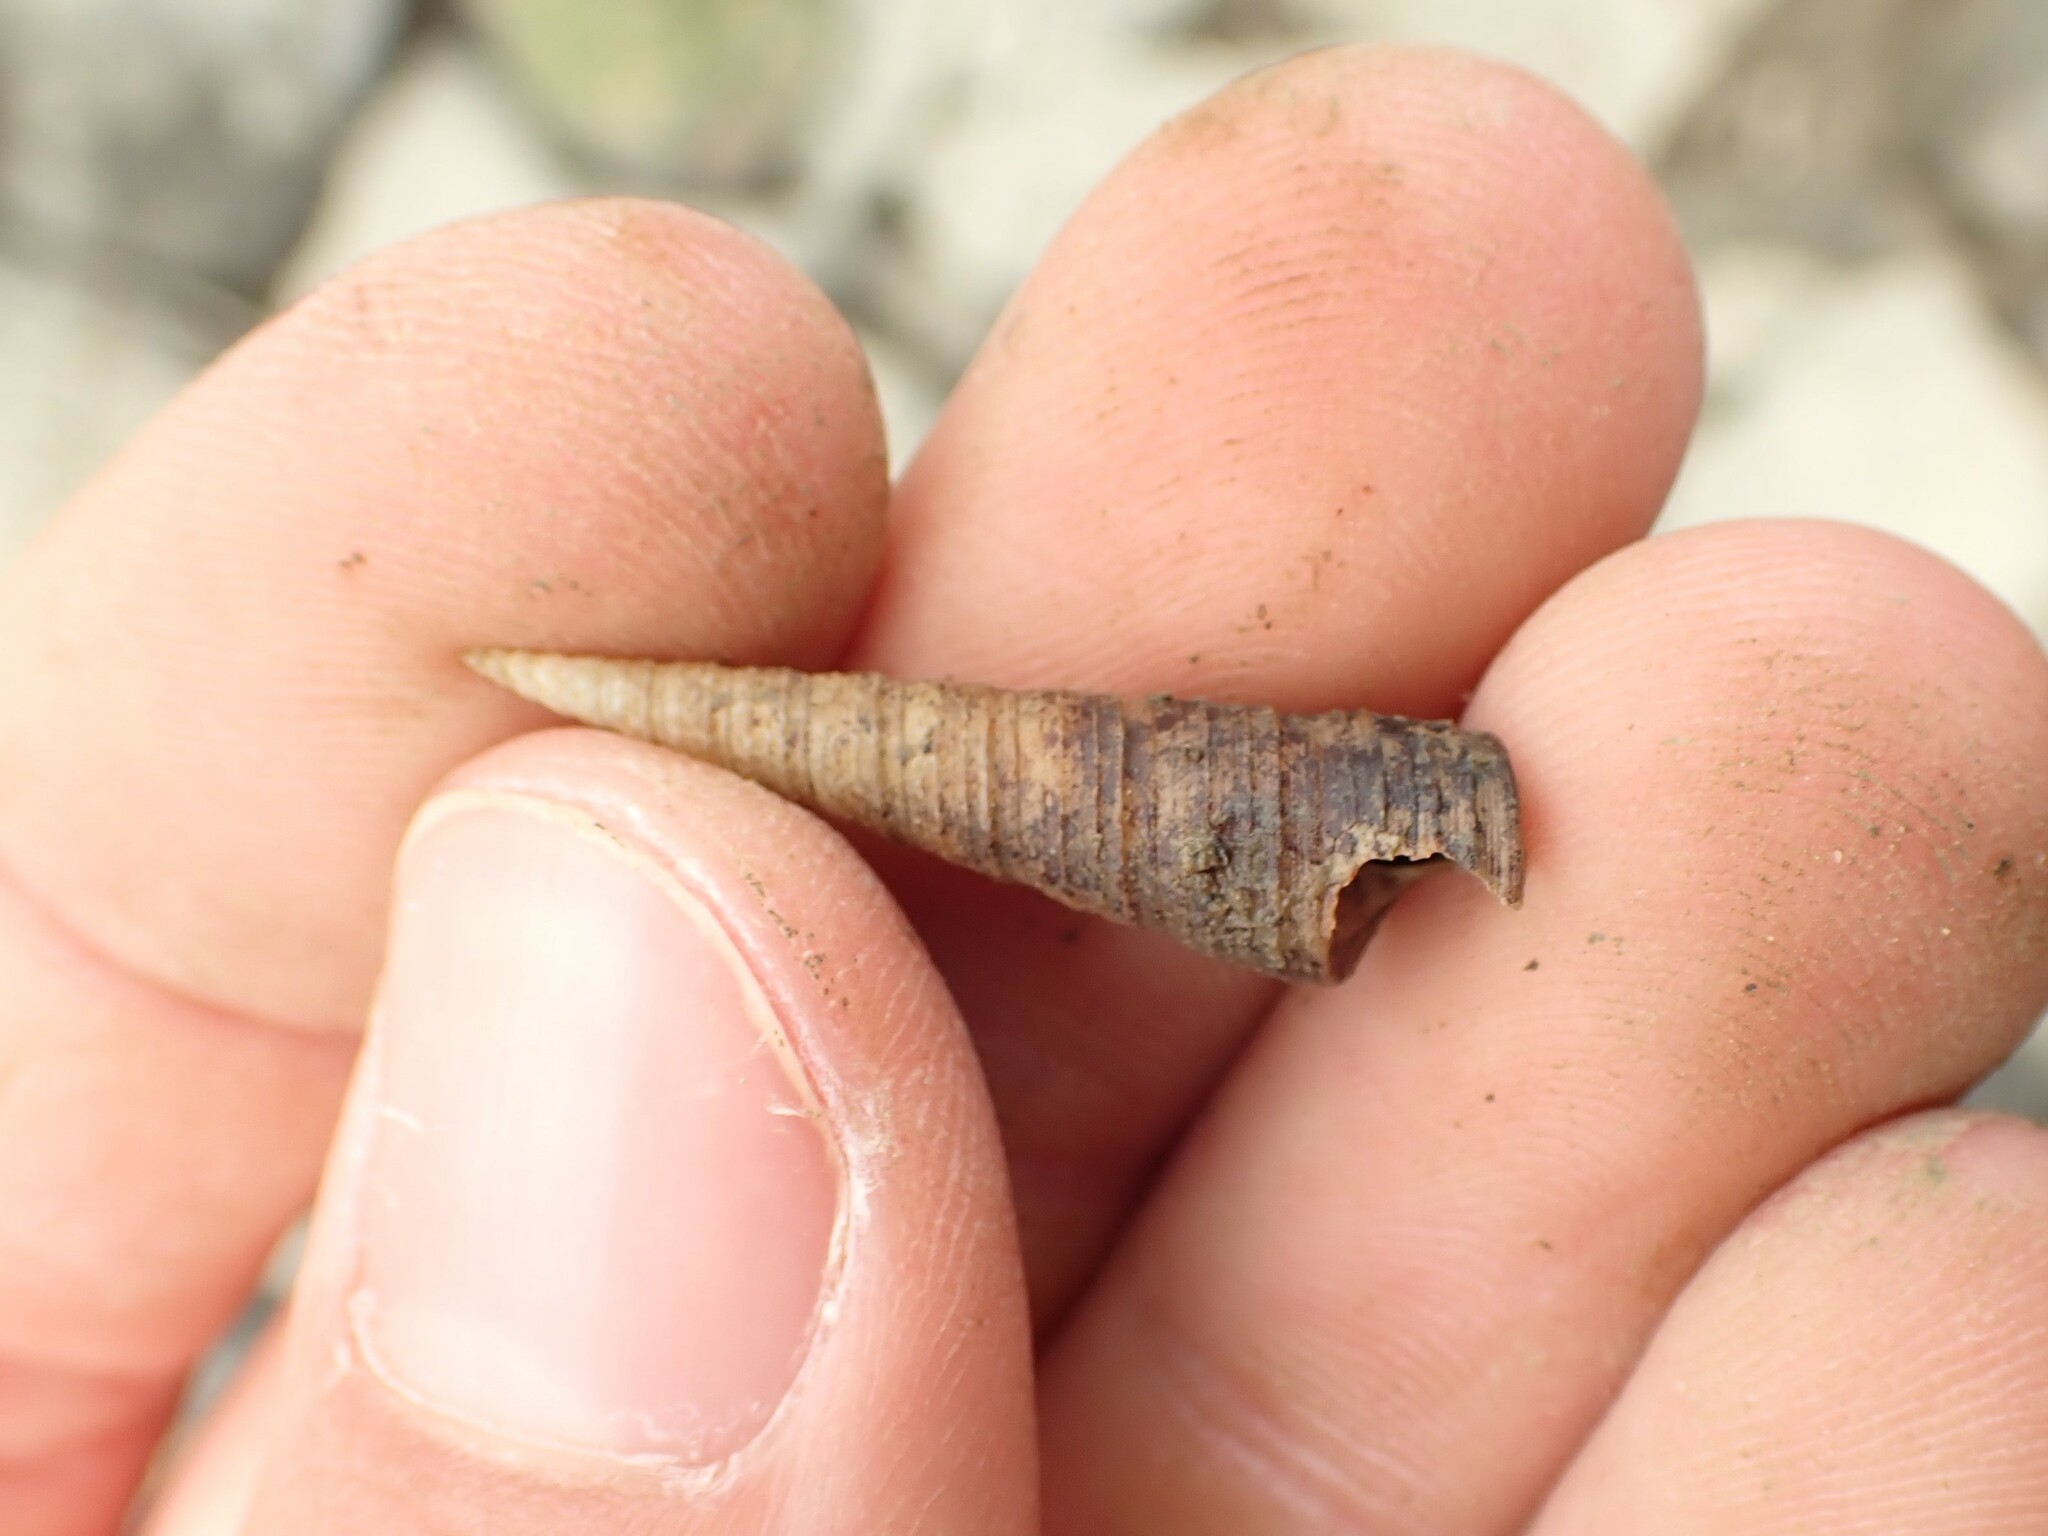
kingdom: Animalia
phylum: Mollusca
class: Gastropoda
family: Turritellidae
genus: Maoricolpus
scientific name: Maoricolpus roseus
